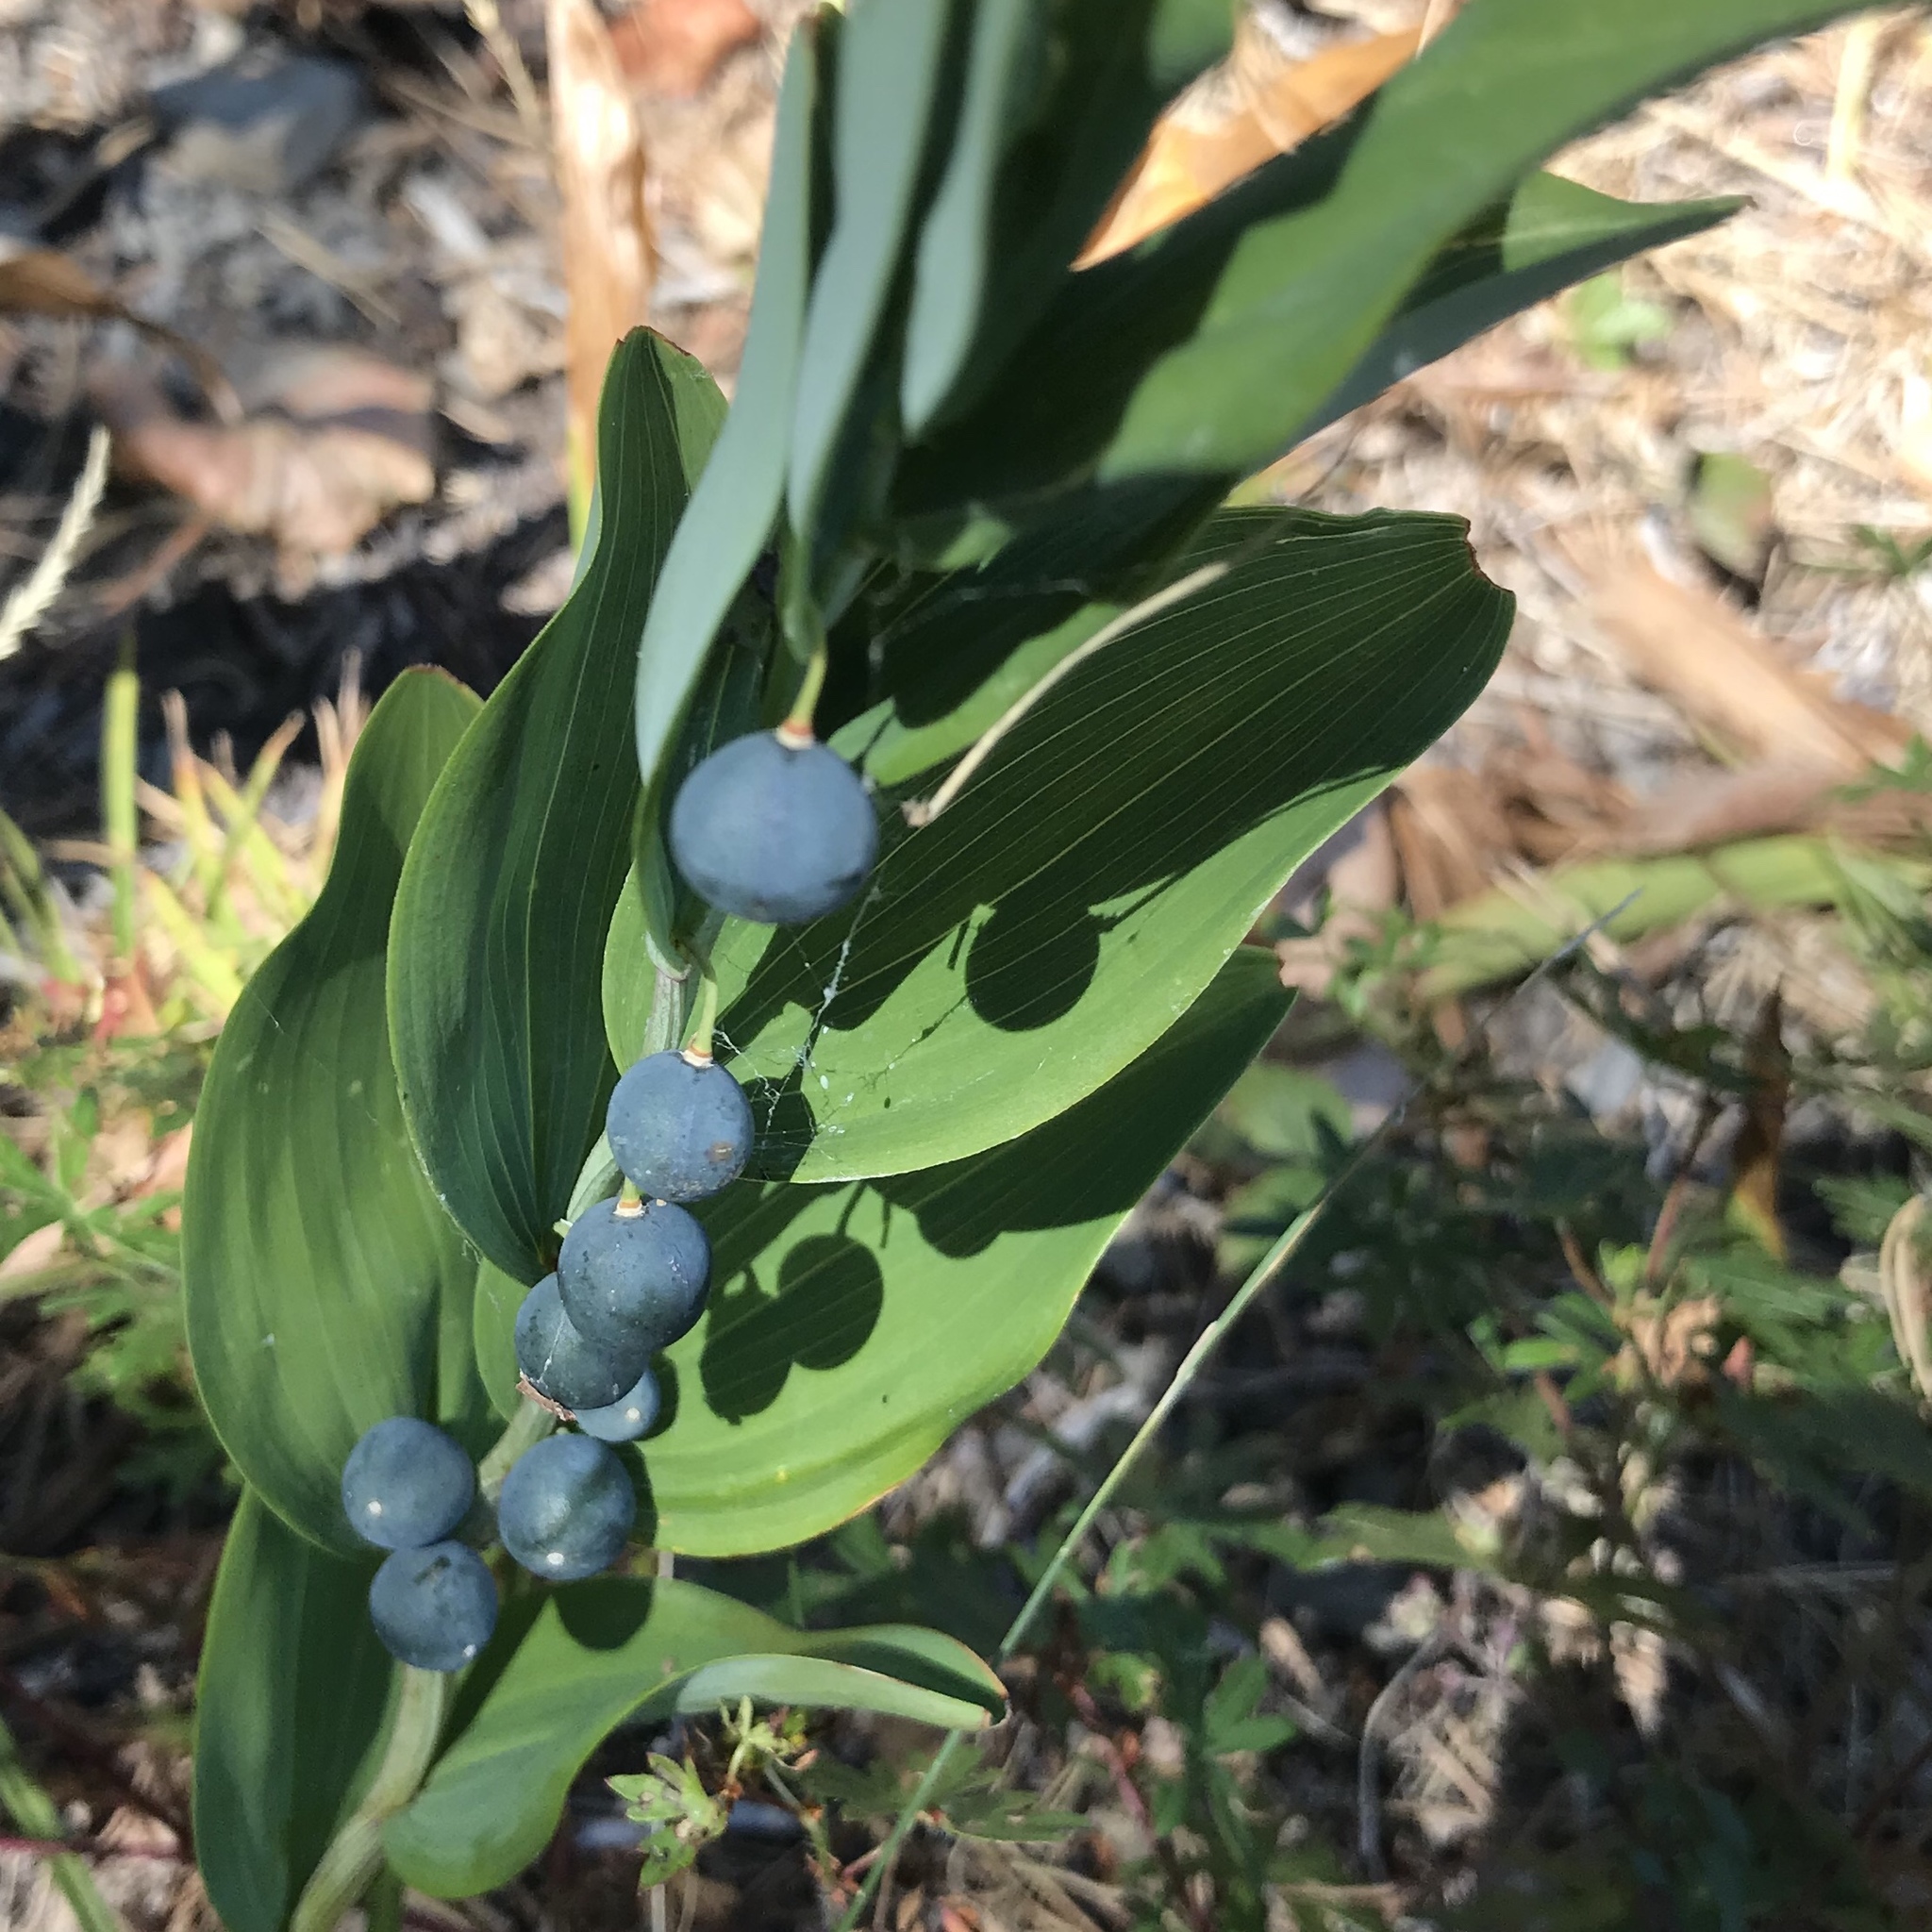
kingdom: Plantae
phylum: Tracheophyta
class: Liliopsida
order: Asparagales
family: Asparagaceae
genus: Polygonatum
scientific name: Polygonatum odoratum
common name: Angular solomon's-seal
